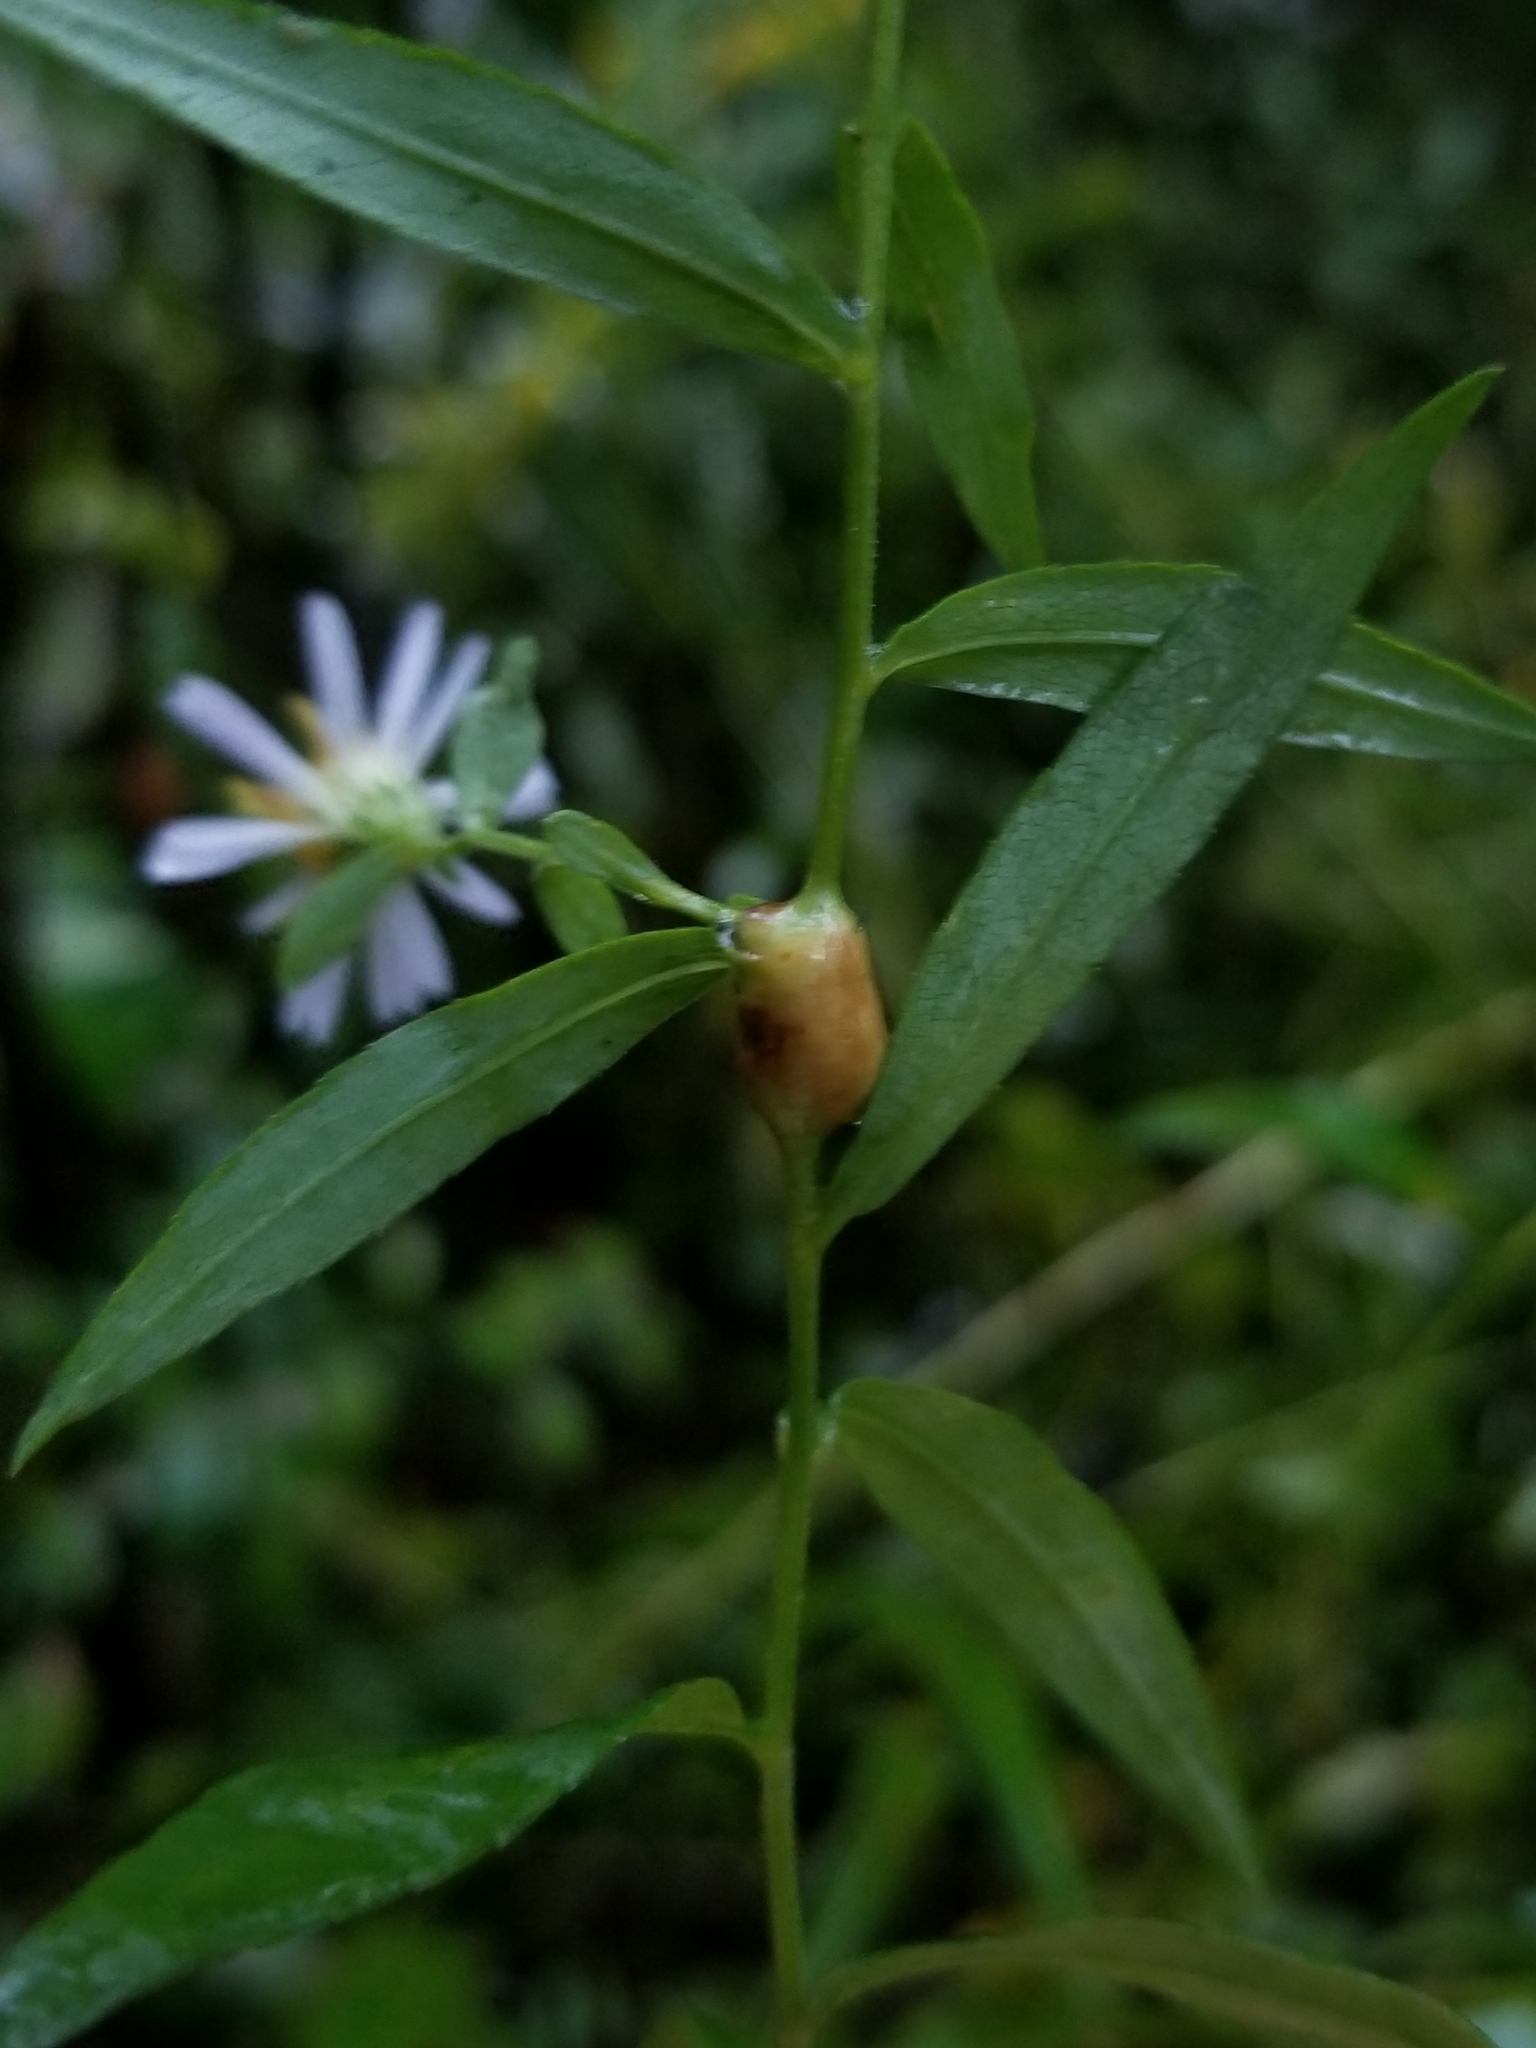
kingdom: Animalia
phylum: Arthropoda
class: Insecta
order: Diptera
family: Cecidomyiidae
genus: Neolasioptera
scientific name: Neolasioptera ramuscula
